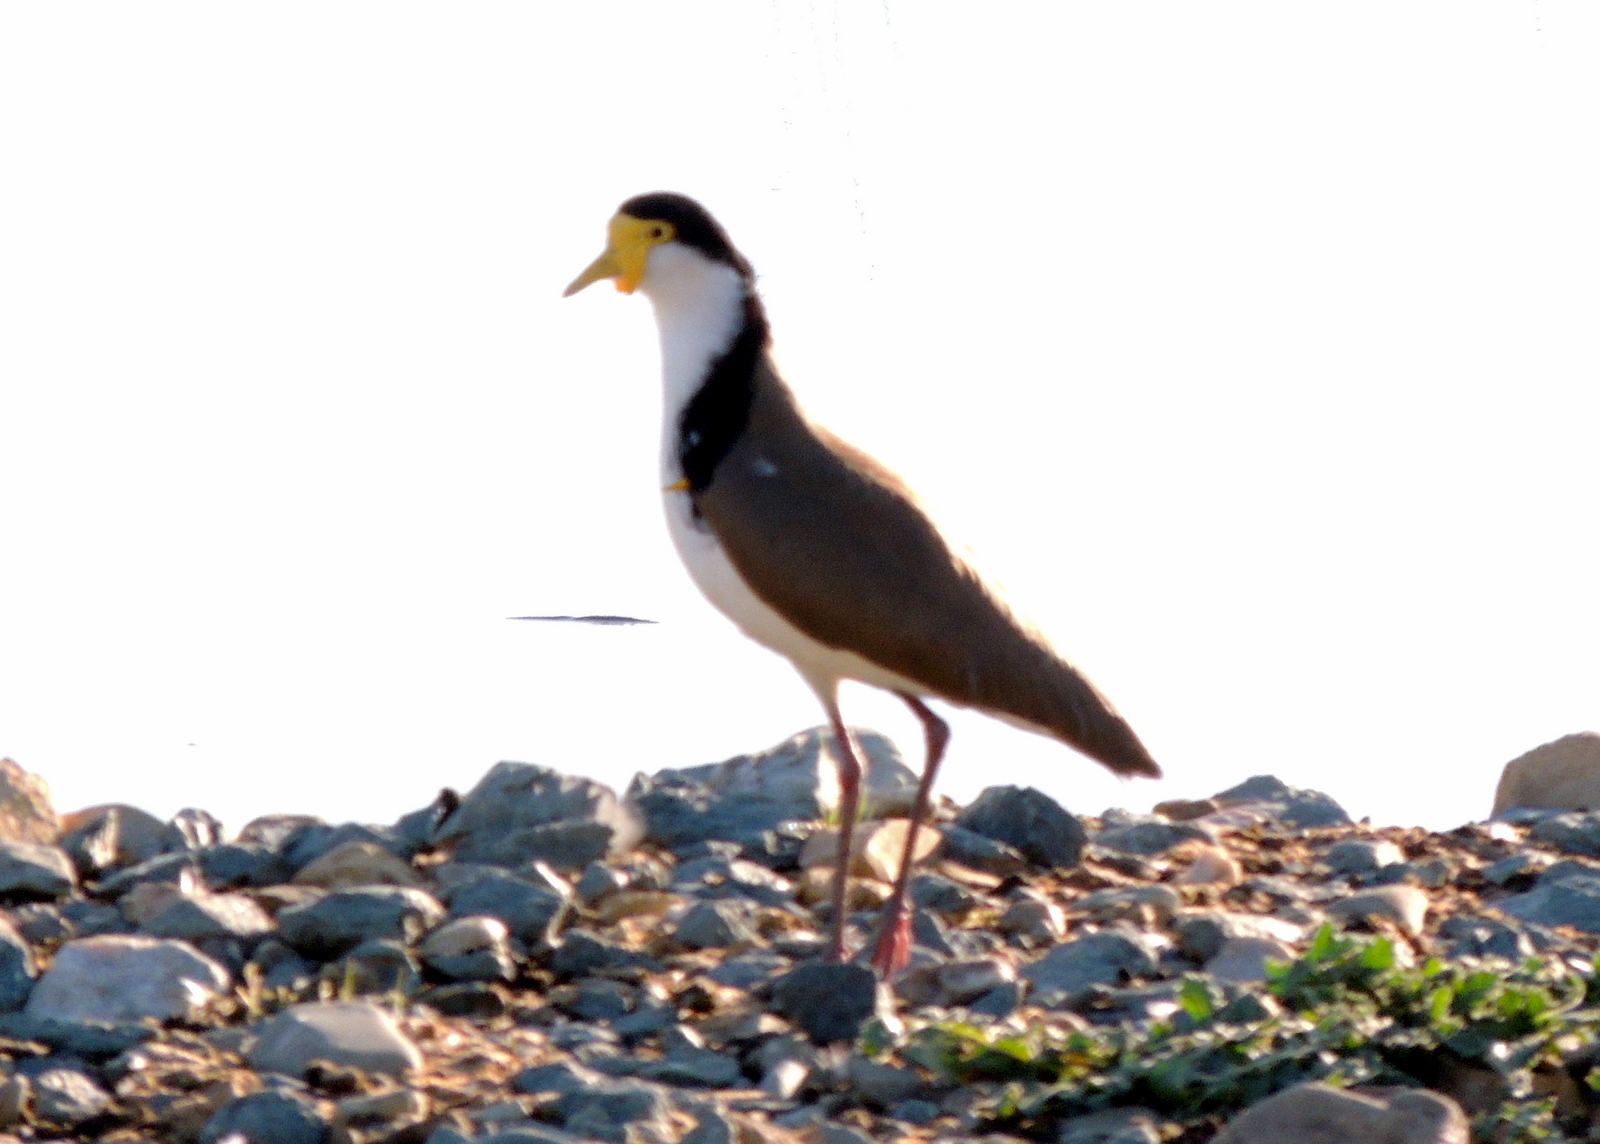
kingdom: Animalia
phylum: Chordata
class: Aves
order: Charadriiformes
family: Charadriidae
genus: Vanellus
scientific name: Vanellus miles
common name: Masked lapwing
